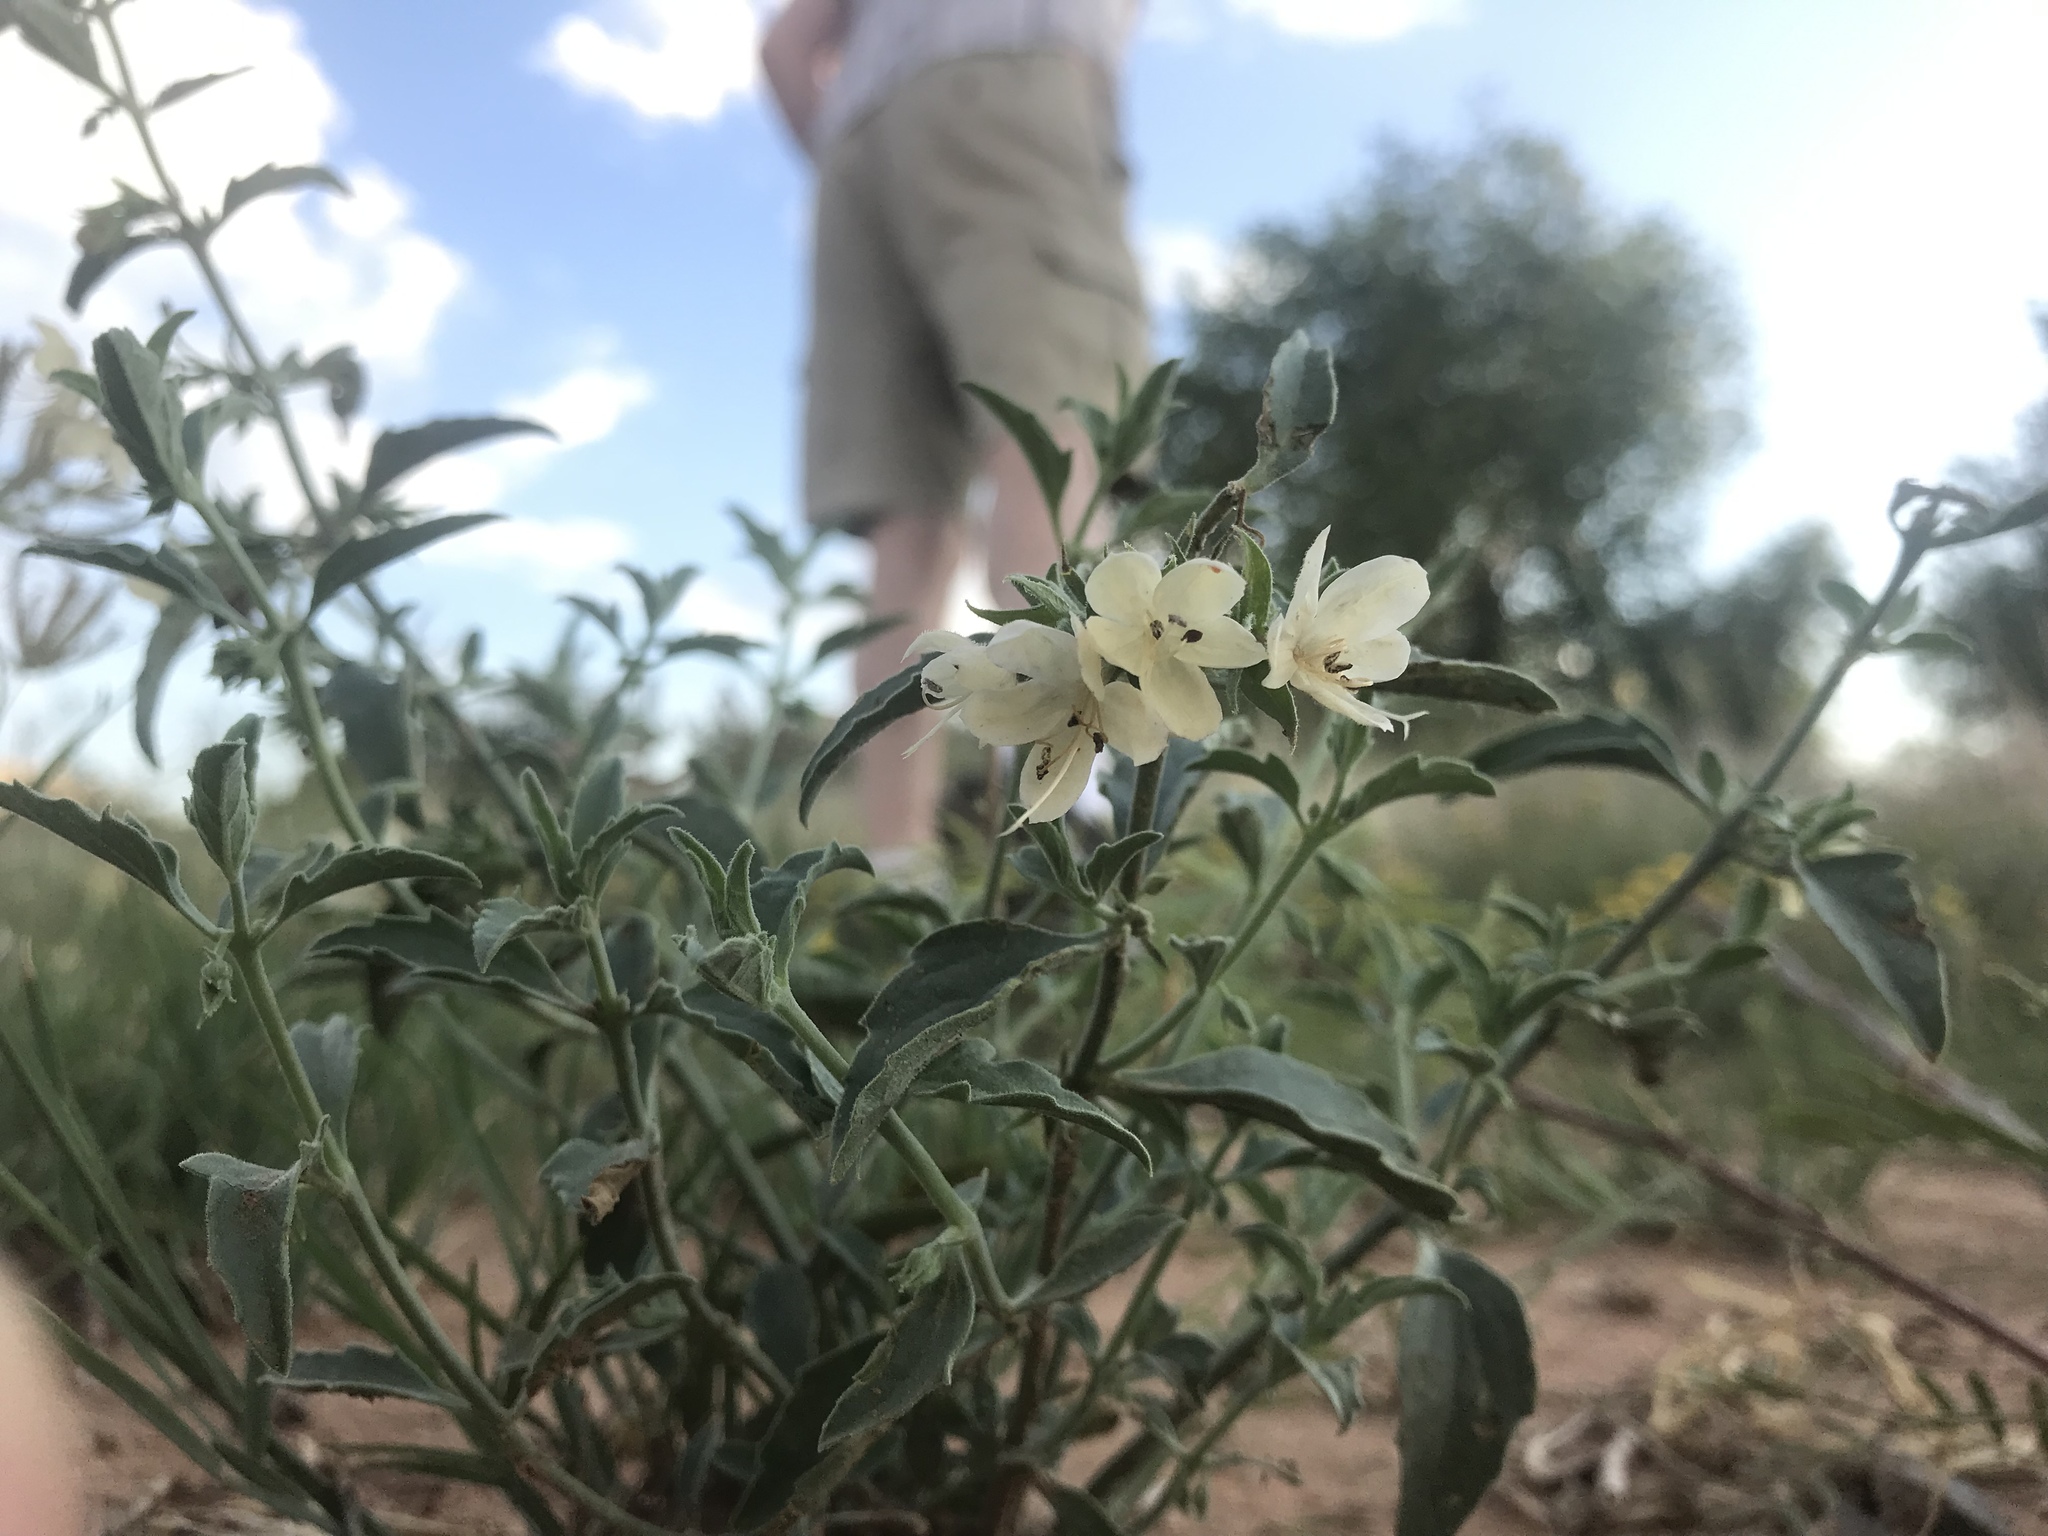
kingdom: Plantae
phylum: Tracheophyta
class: Magnoliopsida
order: Lamiales
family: Lamiaceae
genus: Tetraclea
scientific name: Tetraclea coulteri
